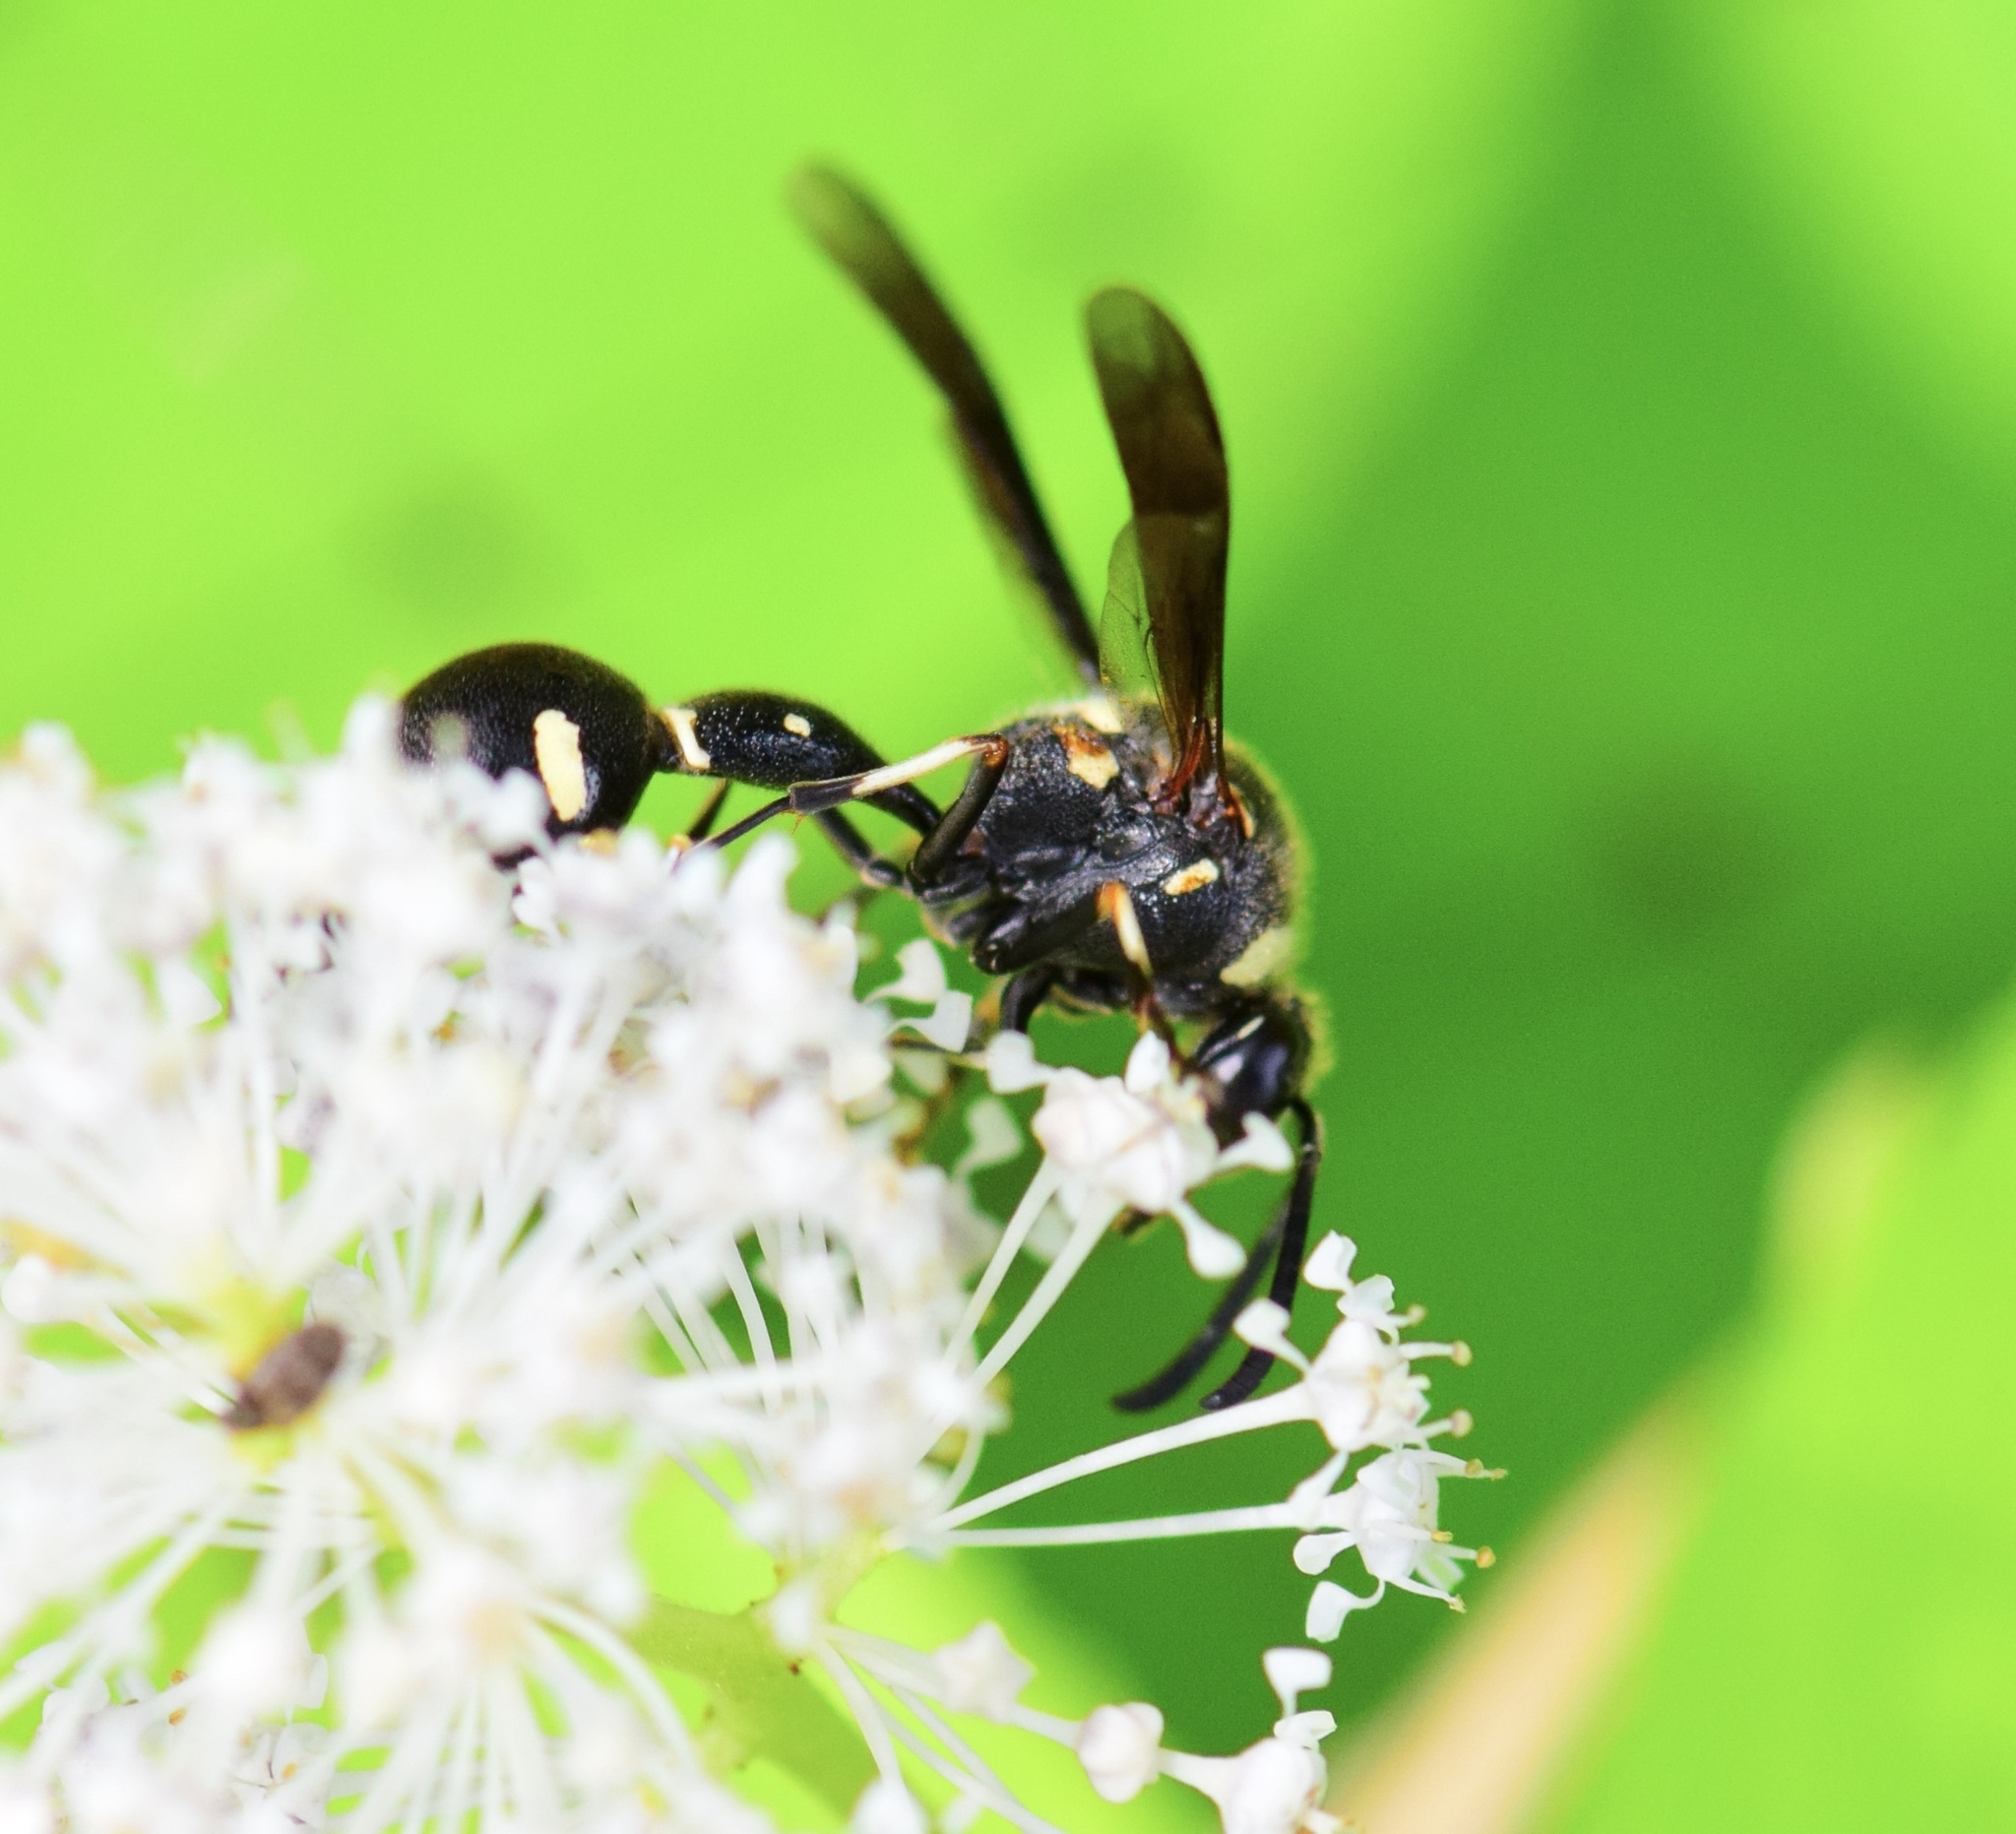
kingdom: Animalia
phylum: Arthropoda
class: Insecta
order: Hymenoptera
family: Vespidae
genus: Eumenes
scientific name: Eumenes
